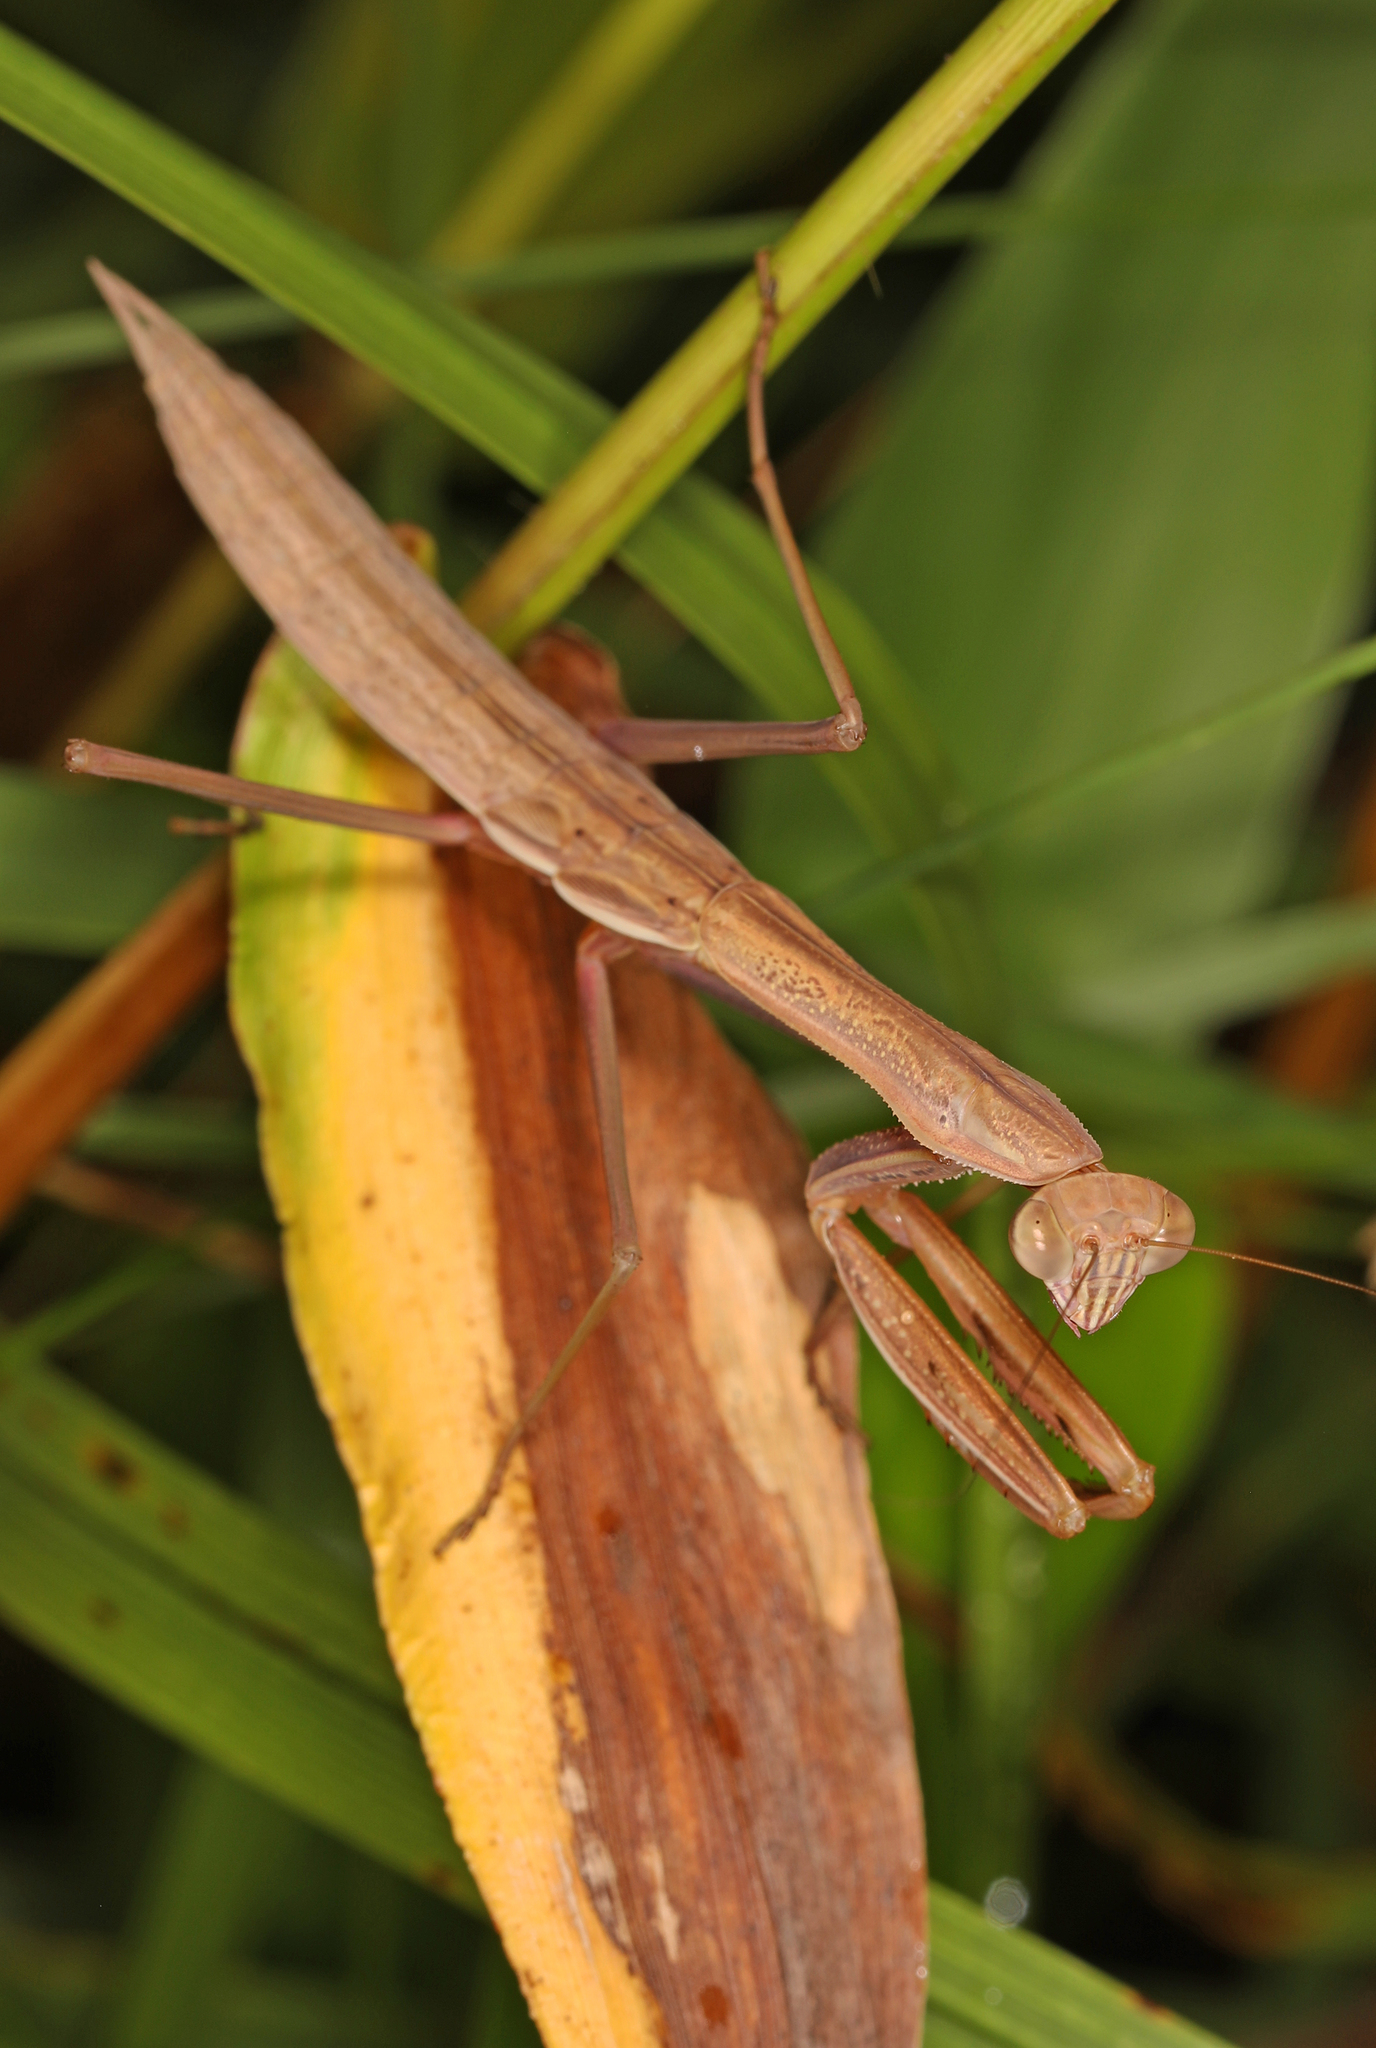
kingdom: Animalia
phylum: Arthropoda
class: Insecta
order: Mantodea
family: Mantidae
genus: Tenodera
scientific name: Tenodera sinensis
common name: Chinese mantis
